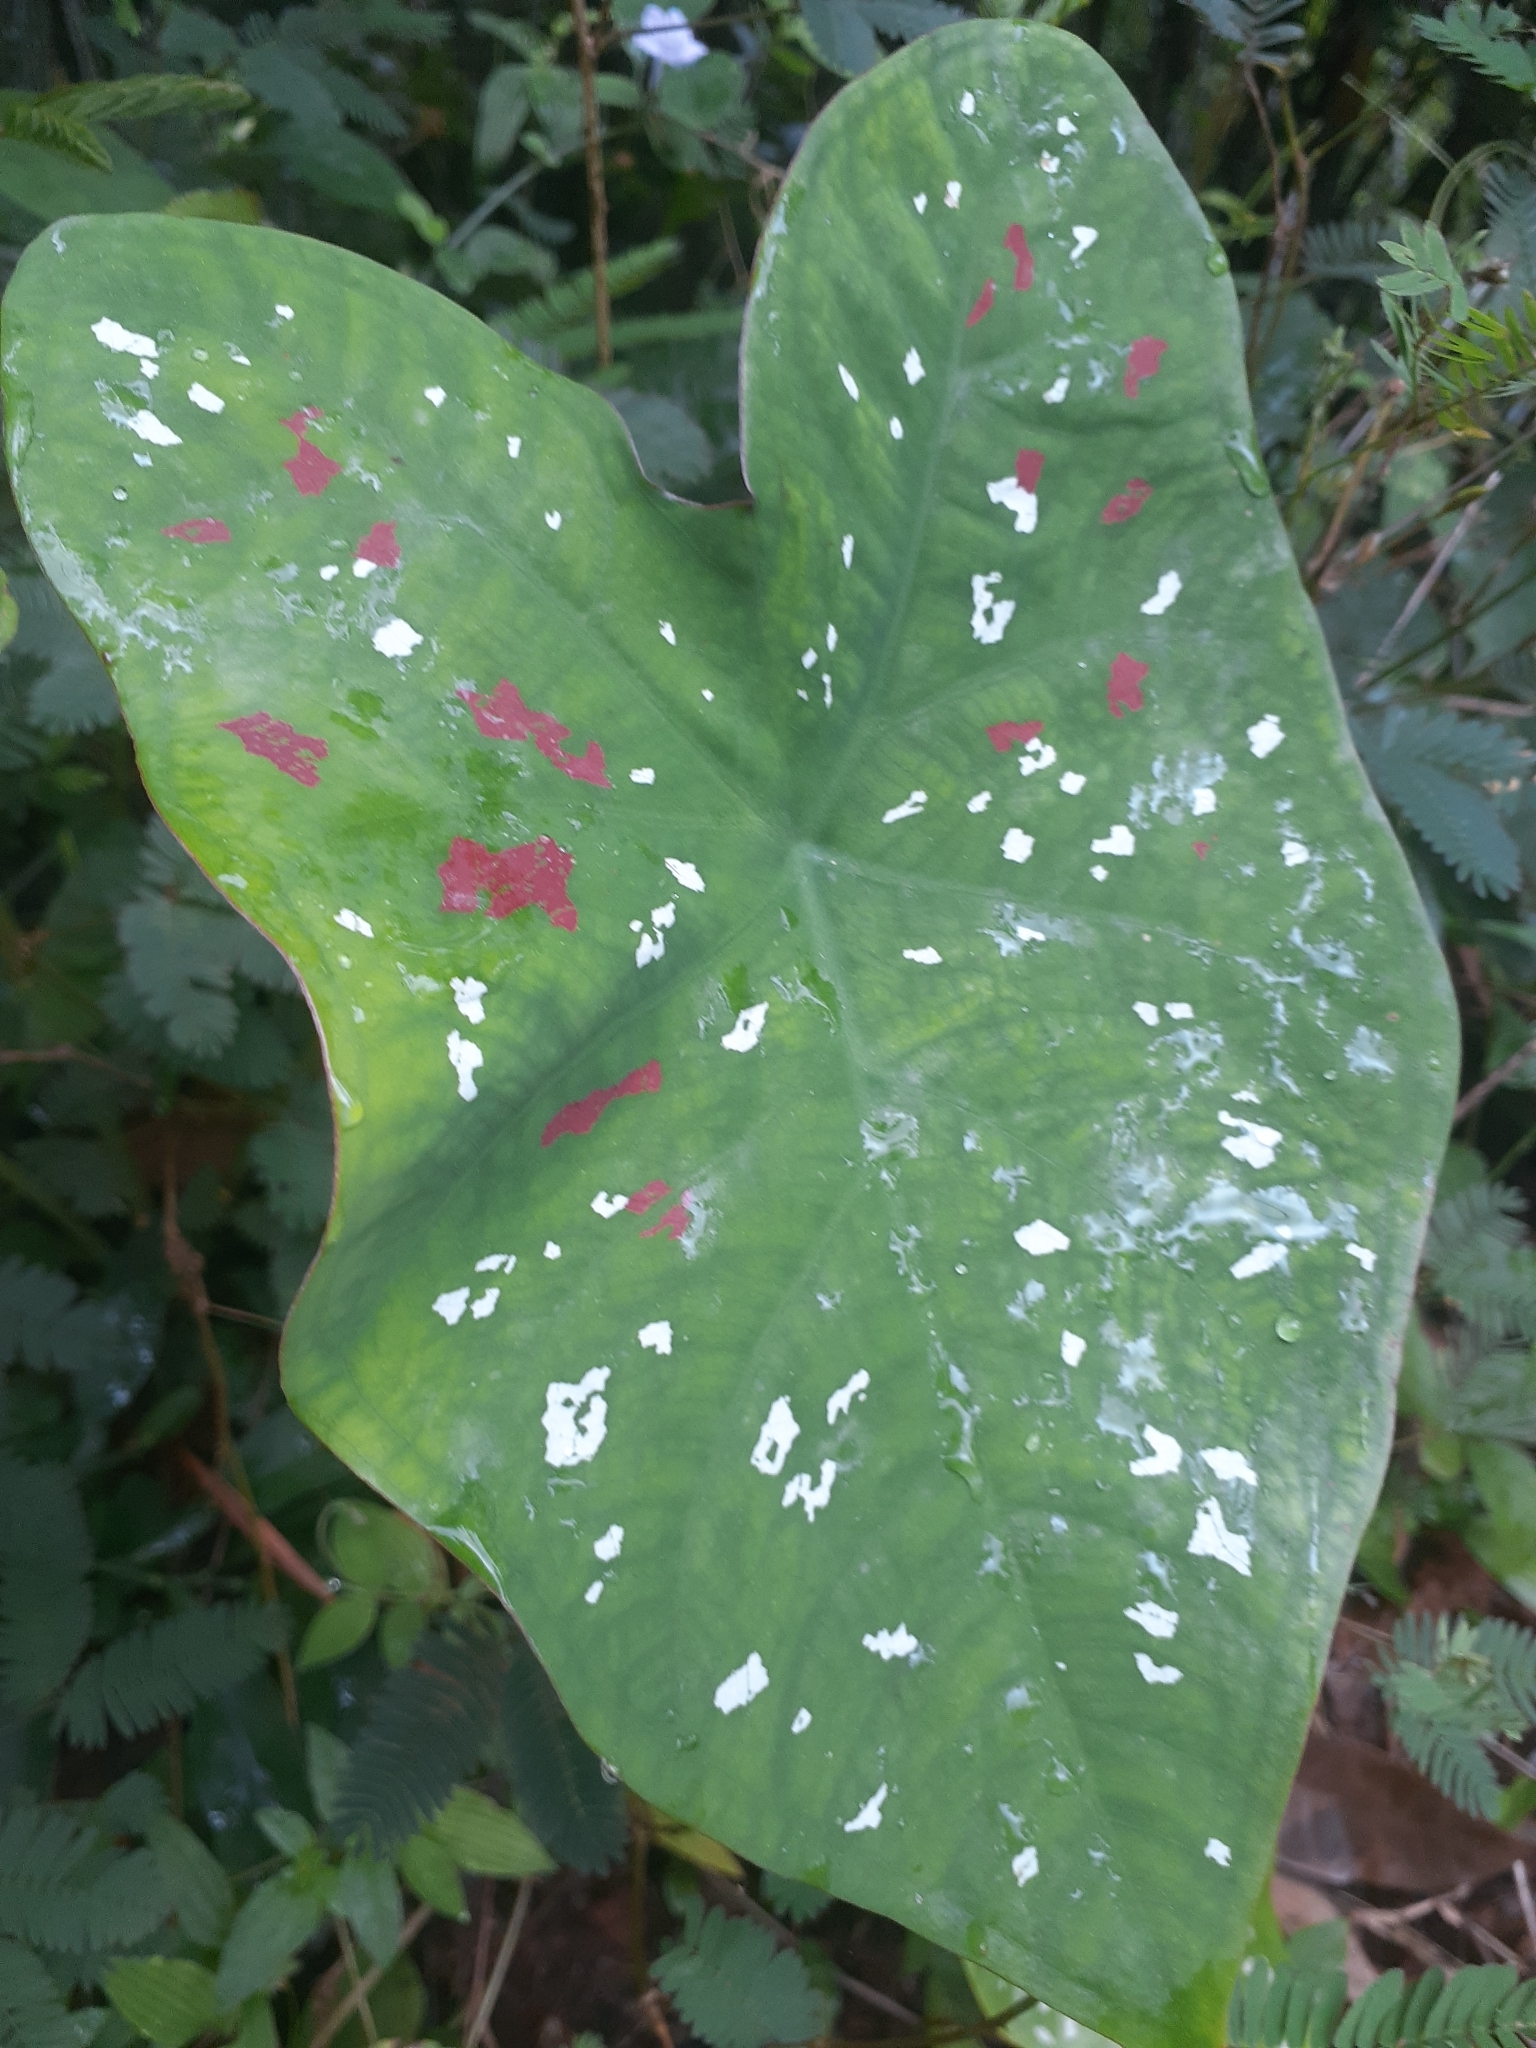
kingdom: Plantae
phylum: Tracheophyta
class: Liliopsida
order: Alismatales
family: Araceae
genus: Caladium
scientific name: Caladium bicolor
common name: Artist's pallet
